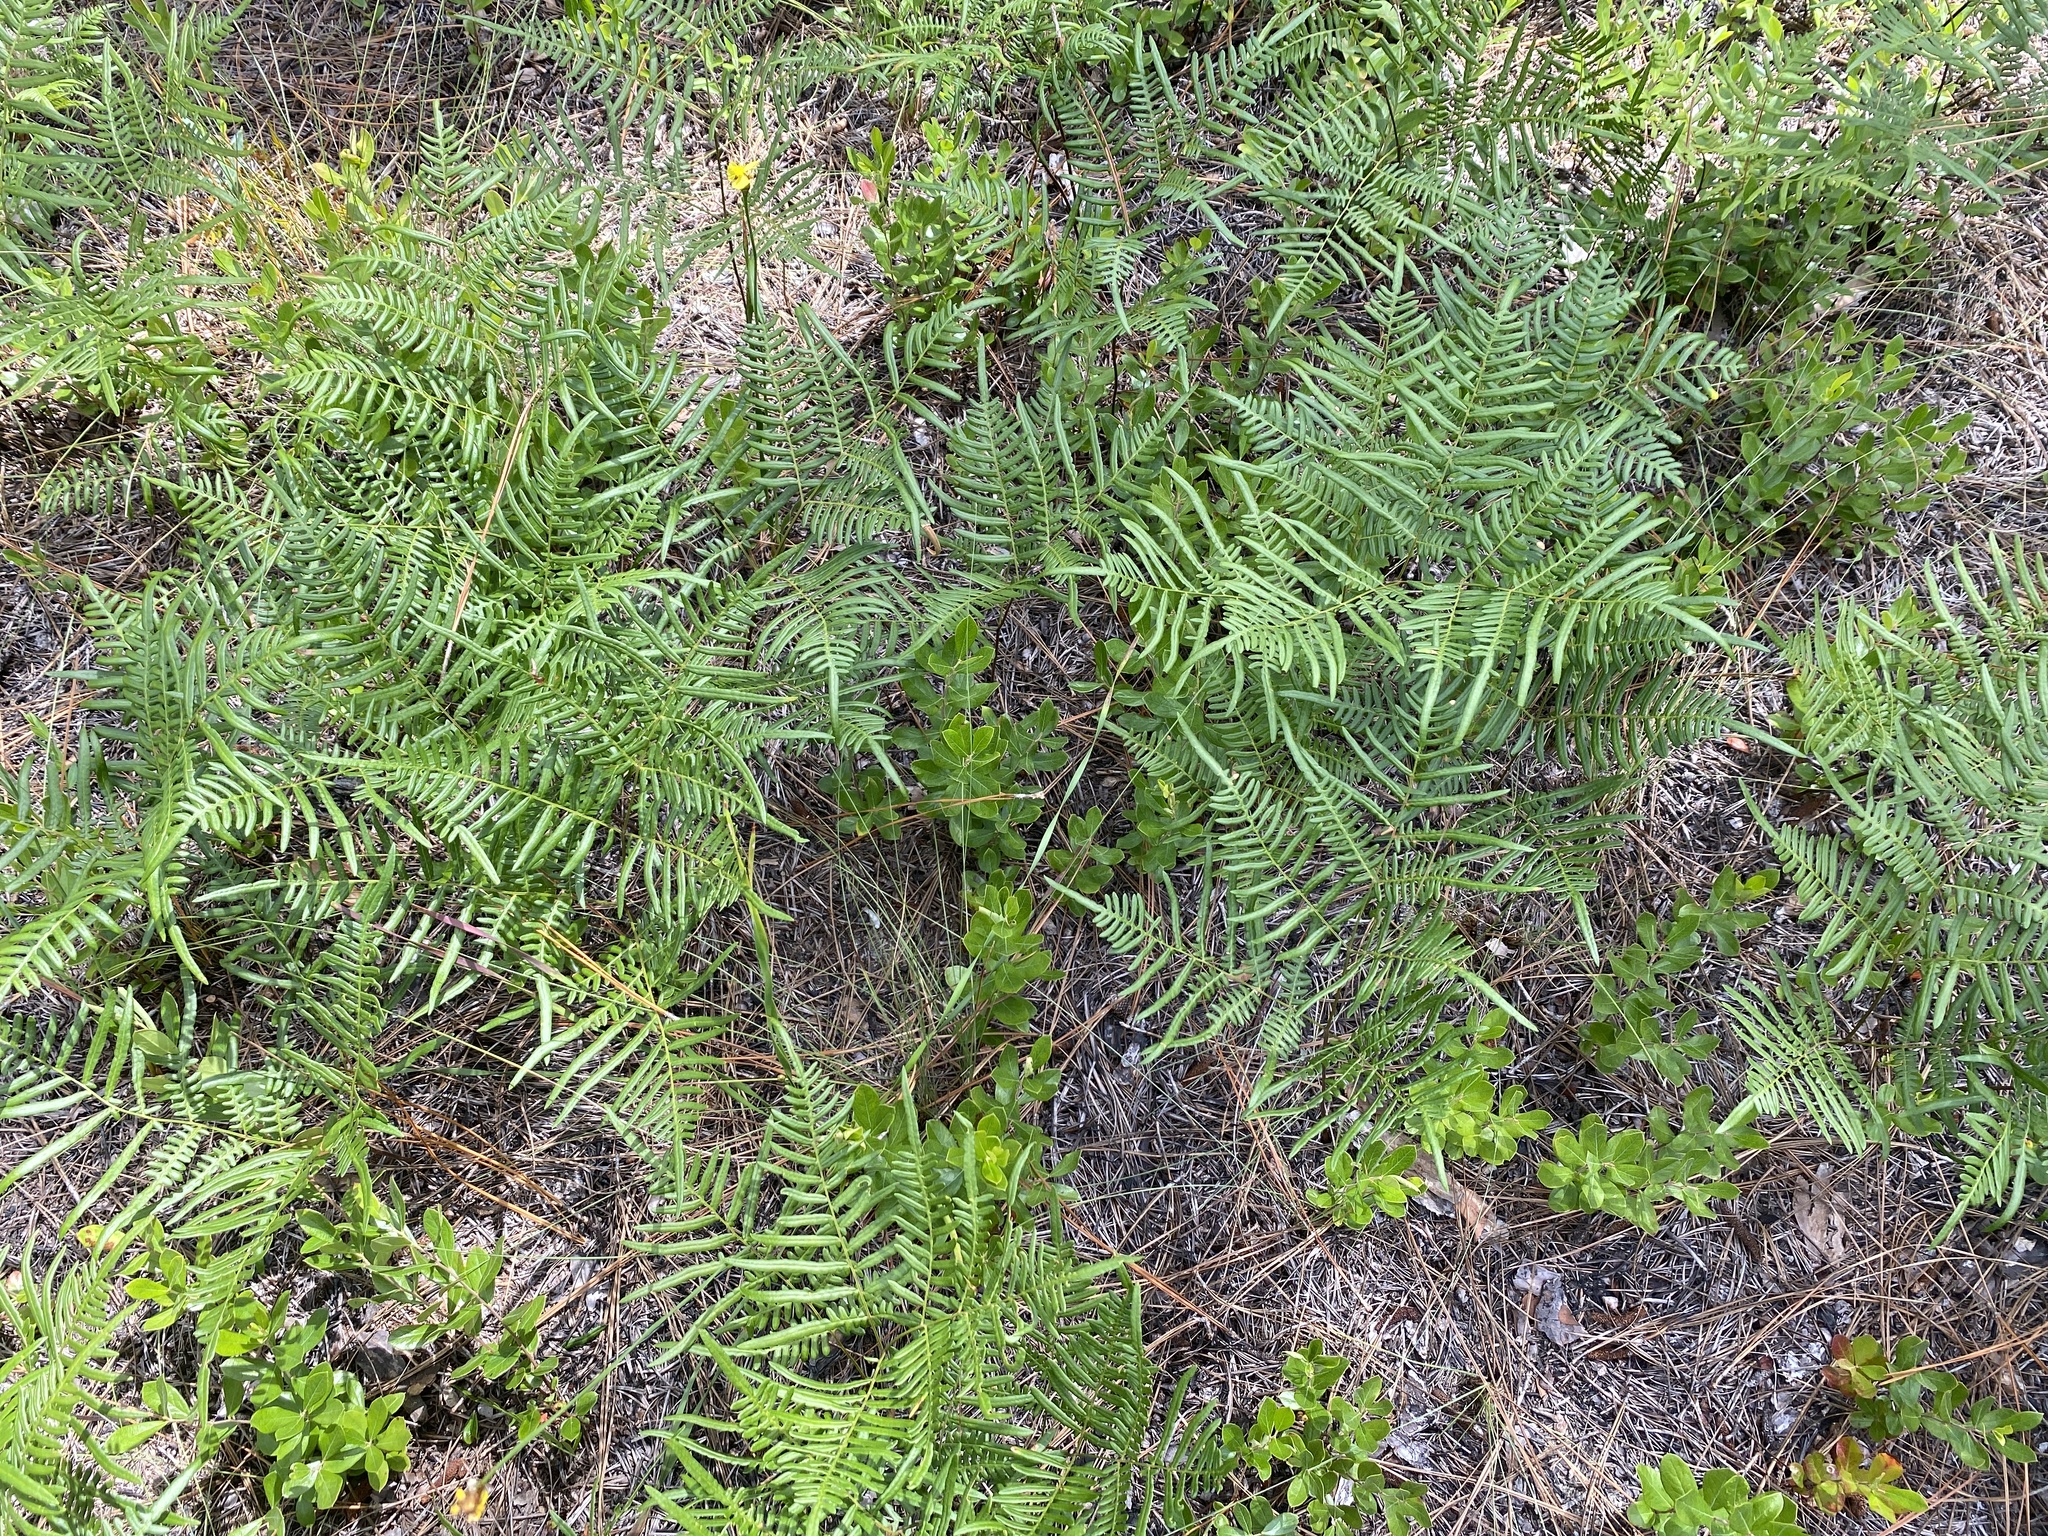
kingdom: Plantae
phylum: Tracheophyta
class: Polypodiopsida
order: Polypodiales
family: Dennstaedtiaceae
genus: Pteridium
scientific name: Pteridium
